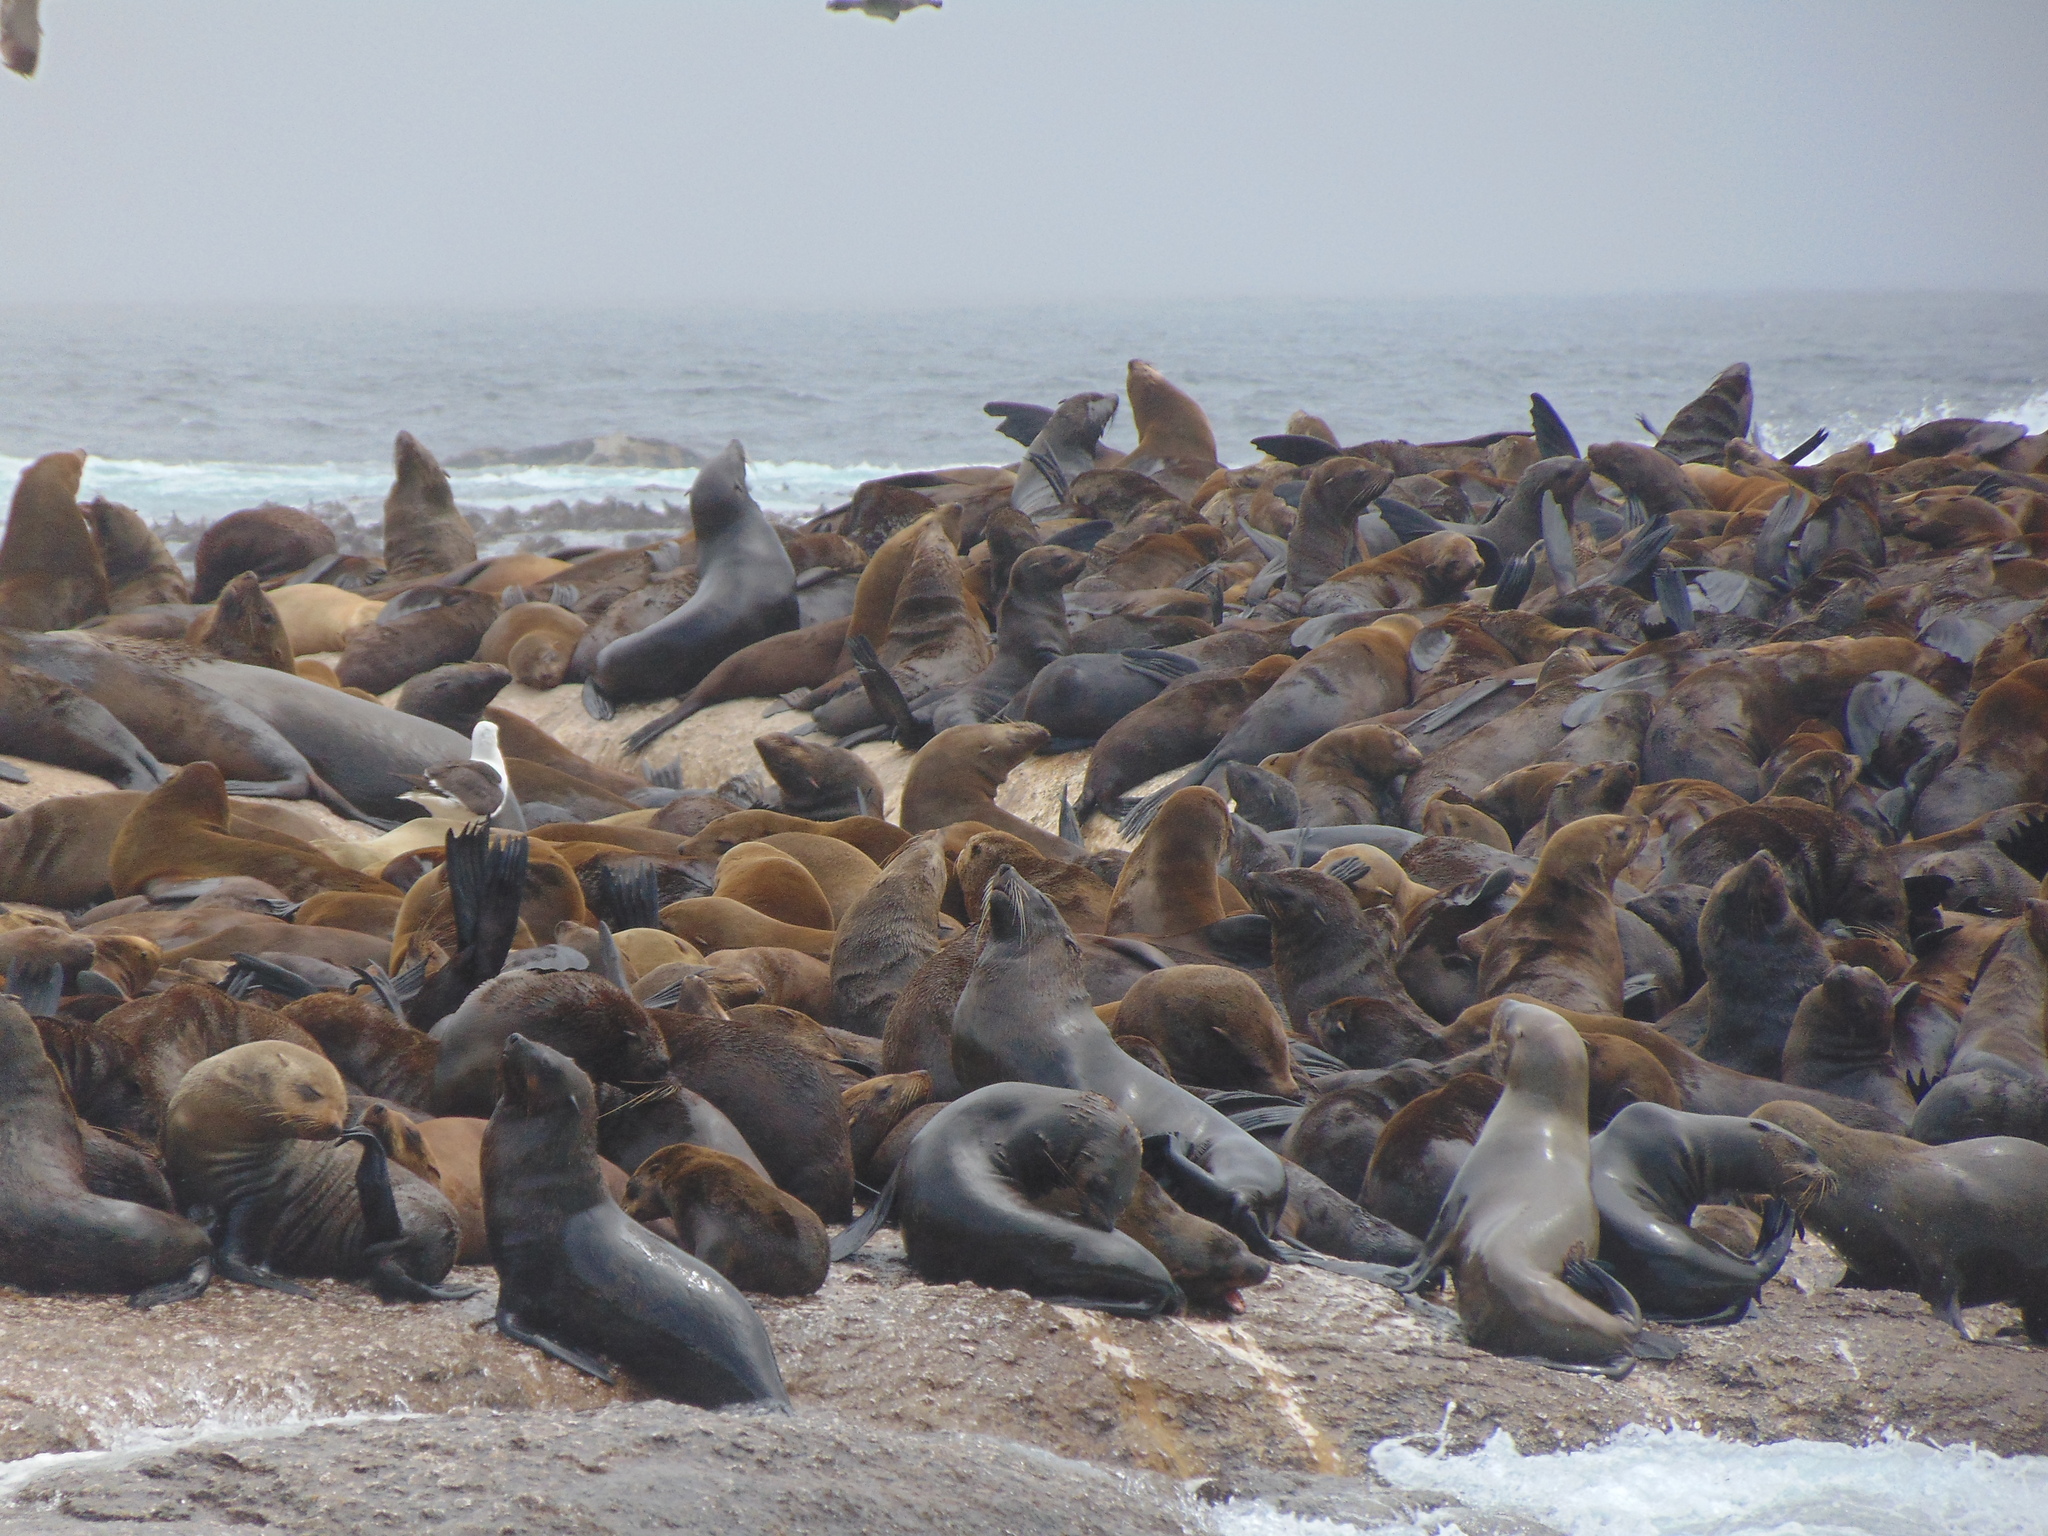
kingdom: Animalia
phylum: Chordata
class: Mammalia
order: Carnivora
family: Otariidae
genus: Arctocephalus
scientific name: Arctocephalus pusillus
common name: Brown fur seal
